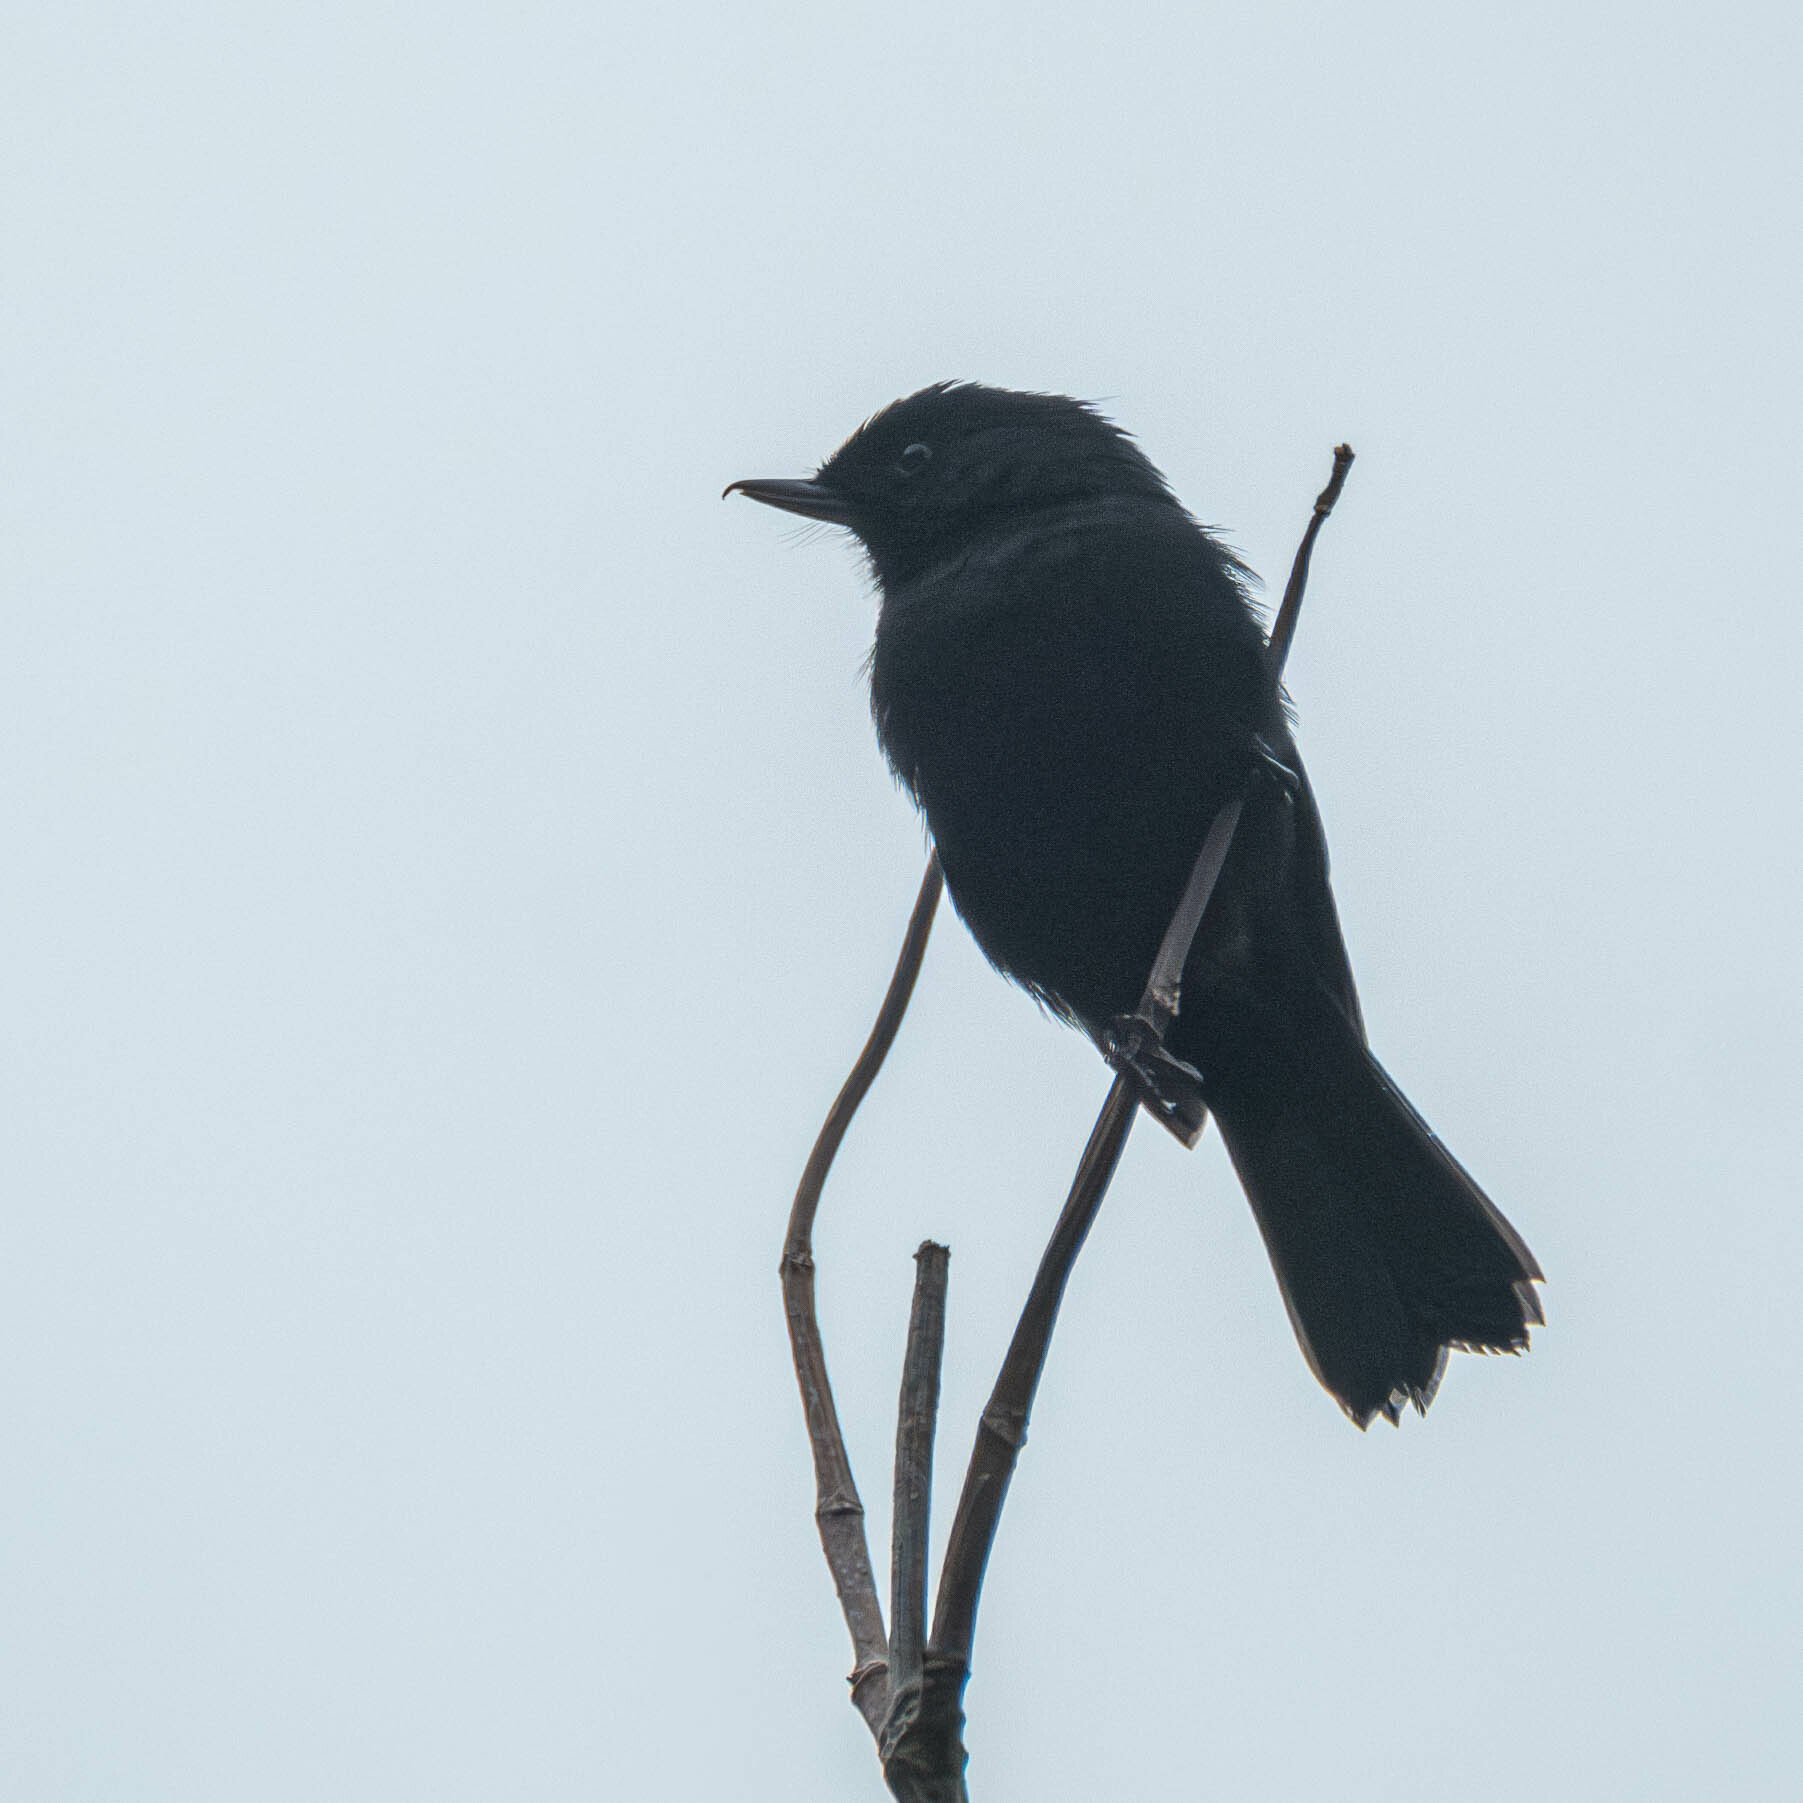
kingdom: Animalia
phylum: Chordata
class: Aves
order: Passeriformes
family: Thraupidae
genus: Diglossa
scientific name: Diglossa humeralis
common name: Black flowerpiercer
